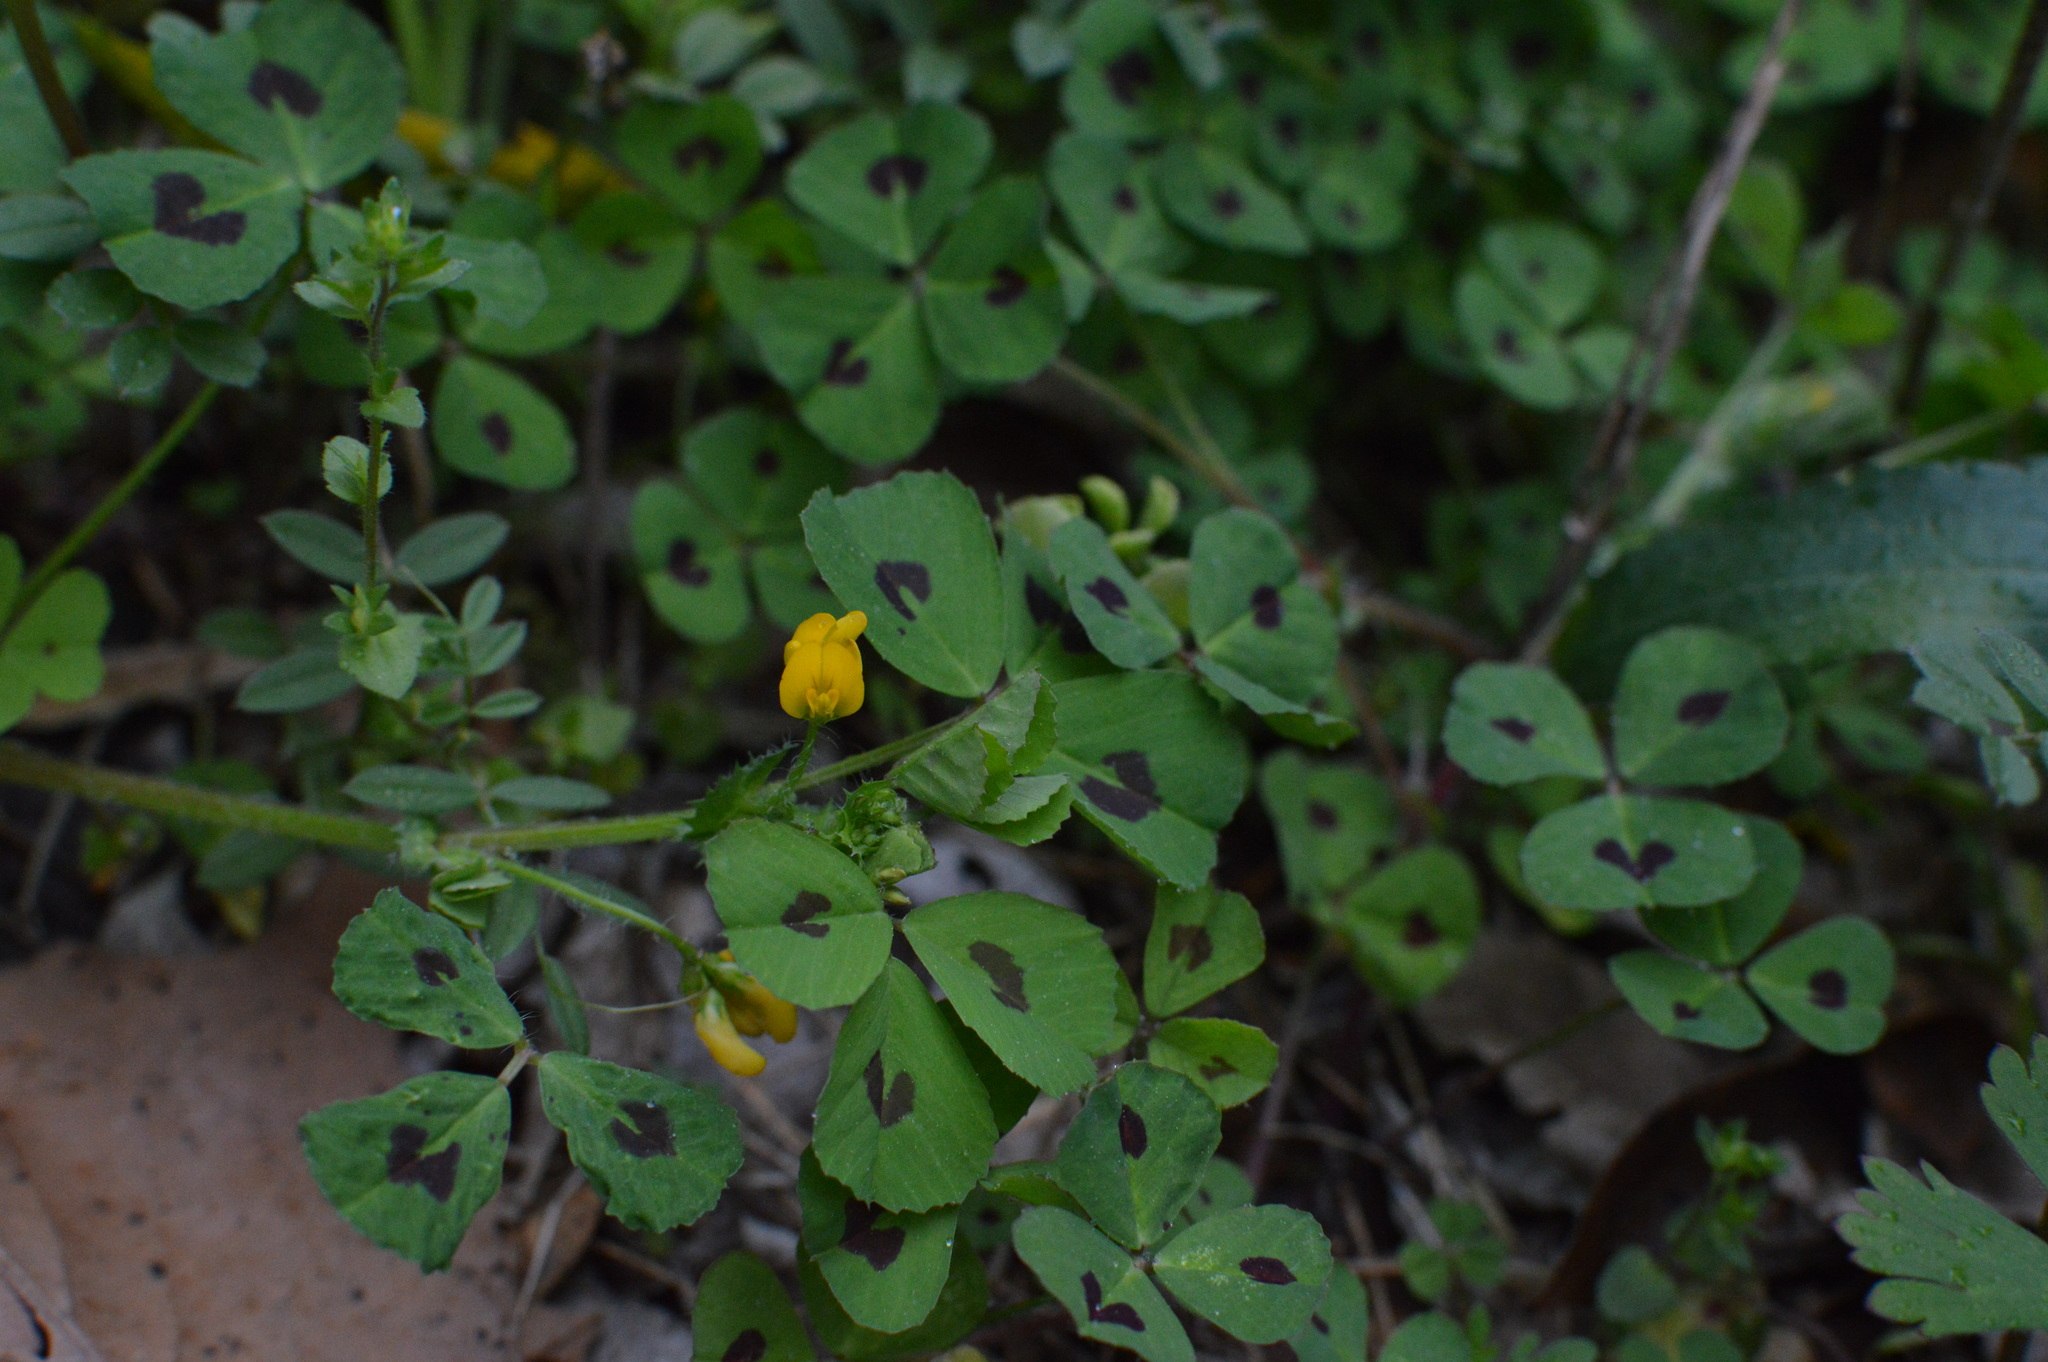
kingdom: Plantae
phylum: Tracheophyta
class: Magnoliopsida
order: Fabales
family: Fabaceae
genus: Medicago
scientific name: Medicago arabica
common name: Spotted medick
